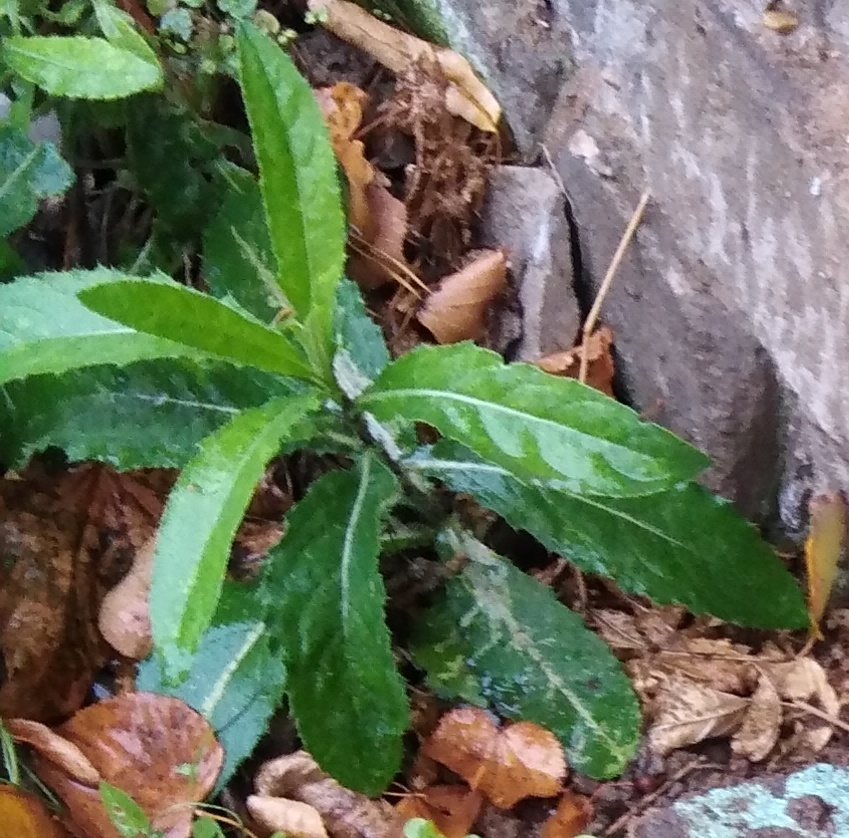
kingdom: Plantae
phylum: Tracheophyta
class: Magnoliopsida
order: Asterales
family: Asteraceae
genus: Cirsium
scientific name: Cirsium arvense
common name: Creeping thistle
